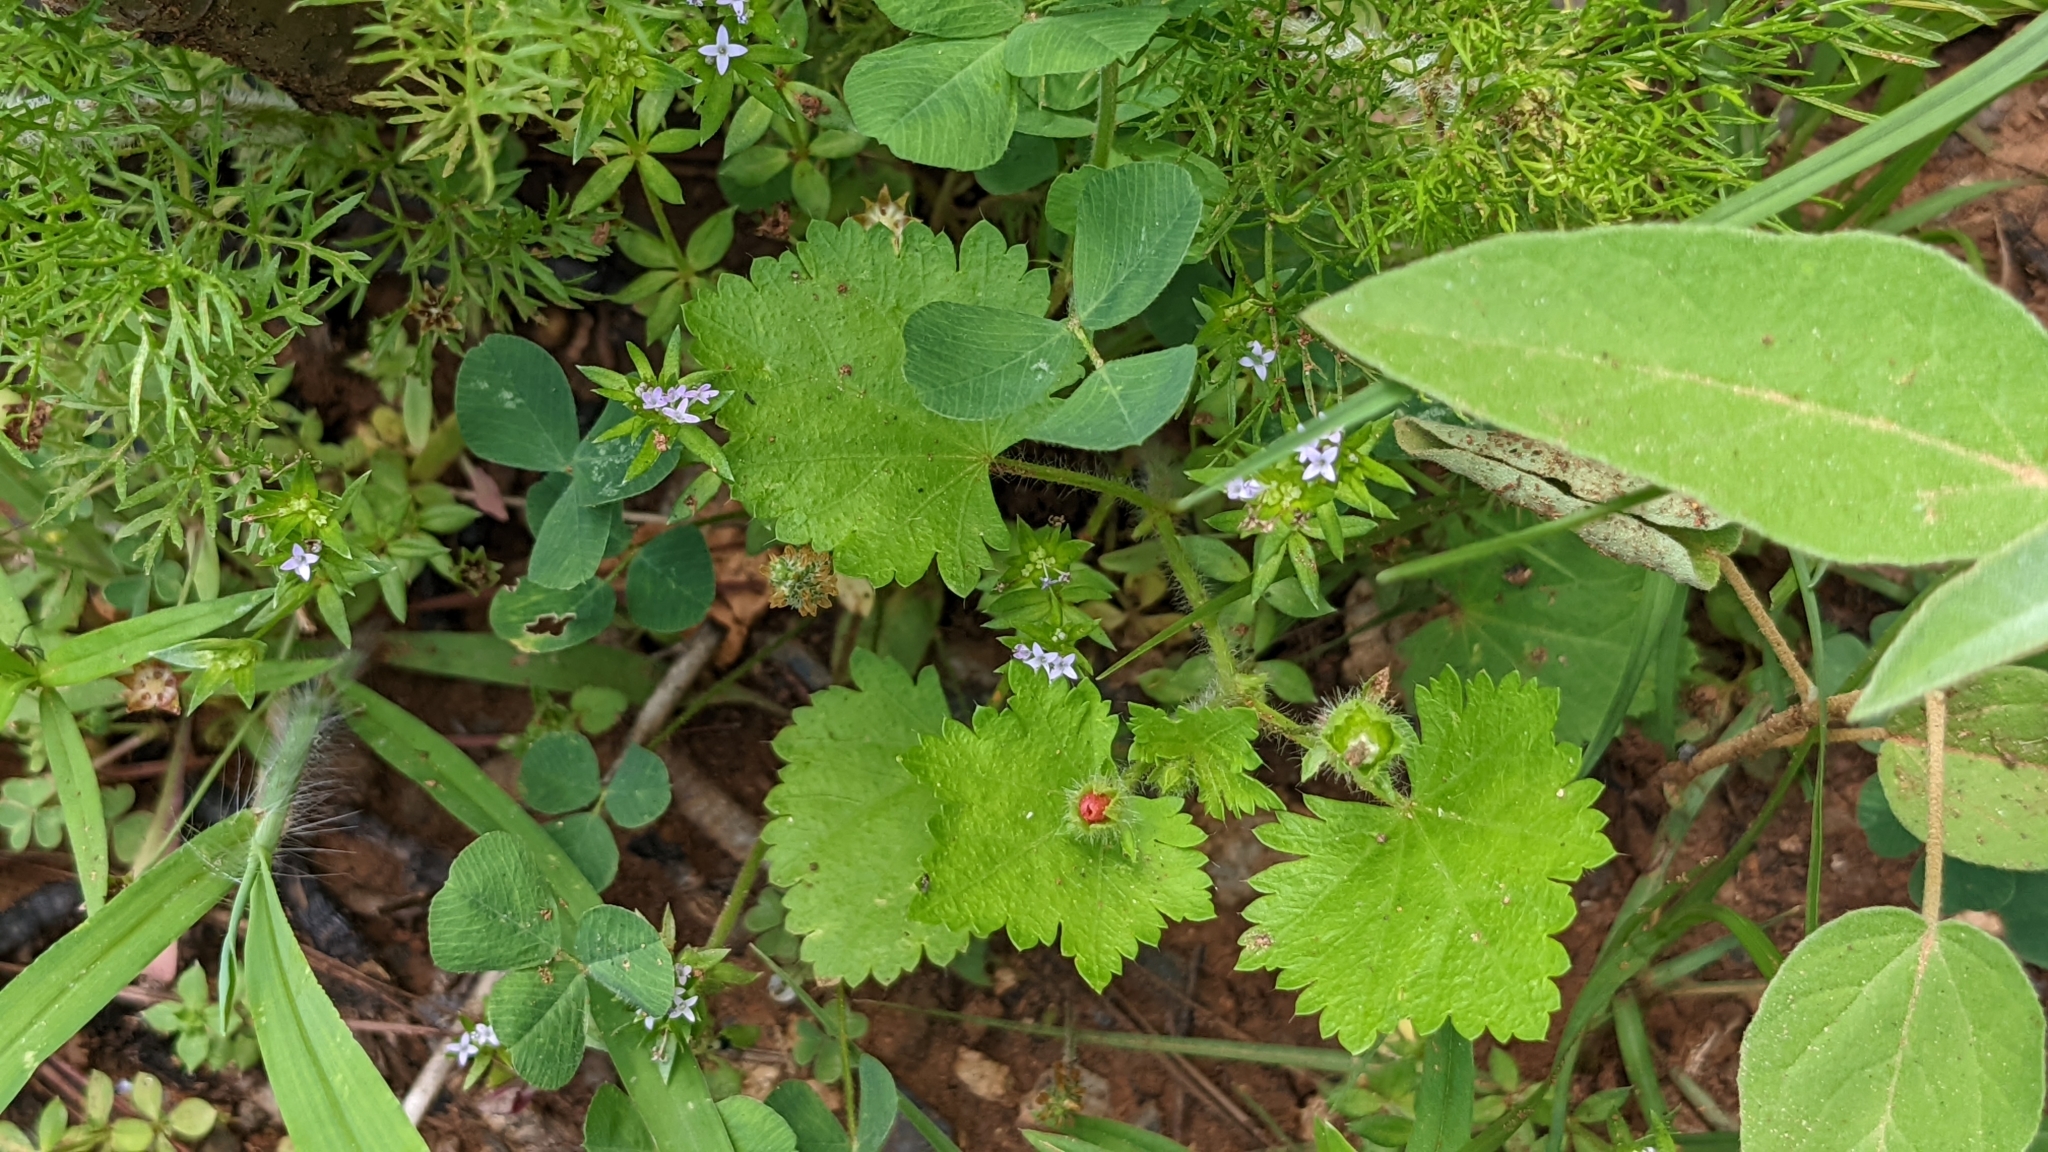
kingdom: Plantae
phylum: Tracheophyta
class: Magnoliopsida
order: Malvales
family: Malvaceae
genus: Modiola
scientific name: Modiola caroliniana
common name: Carolina bristlemallow
